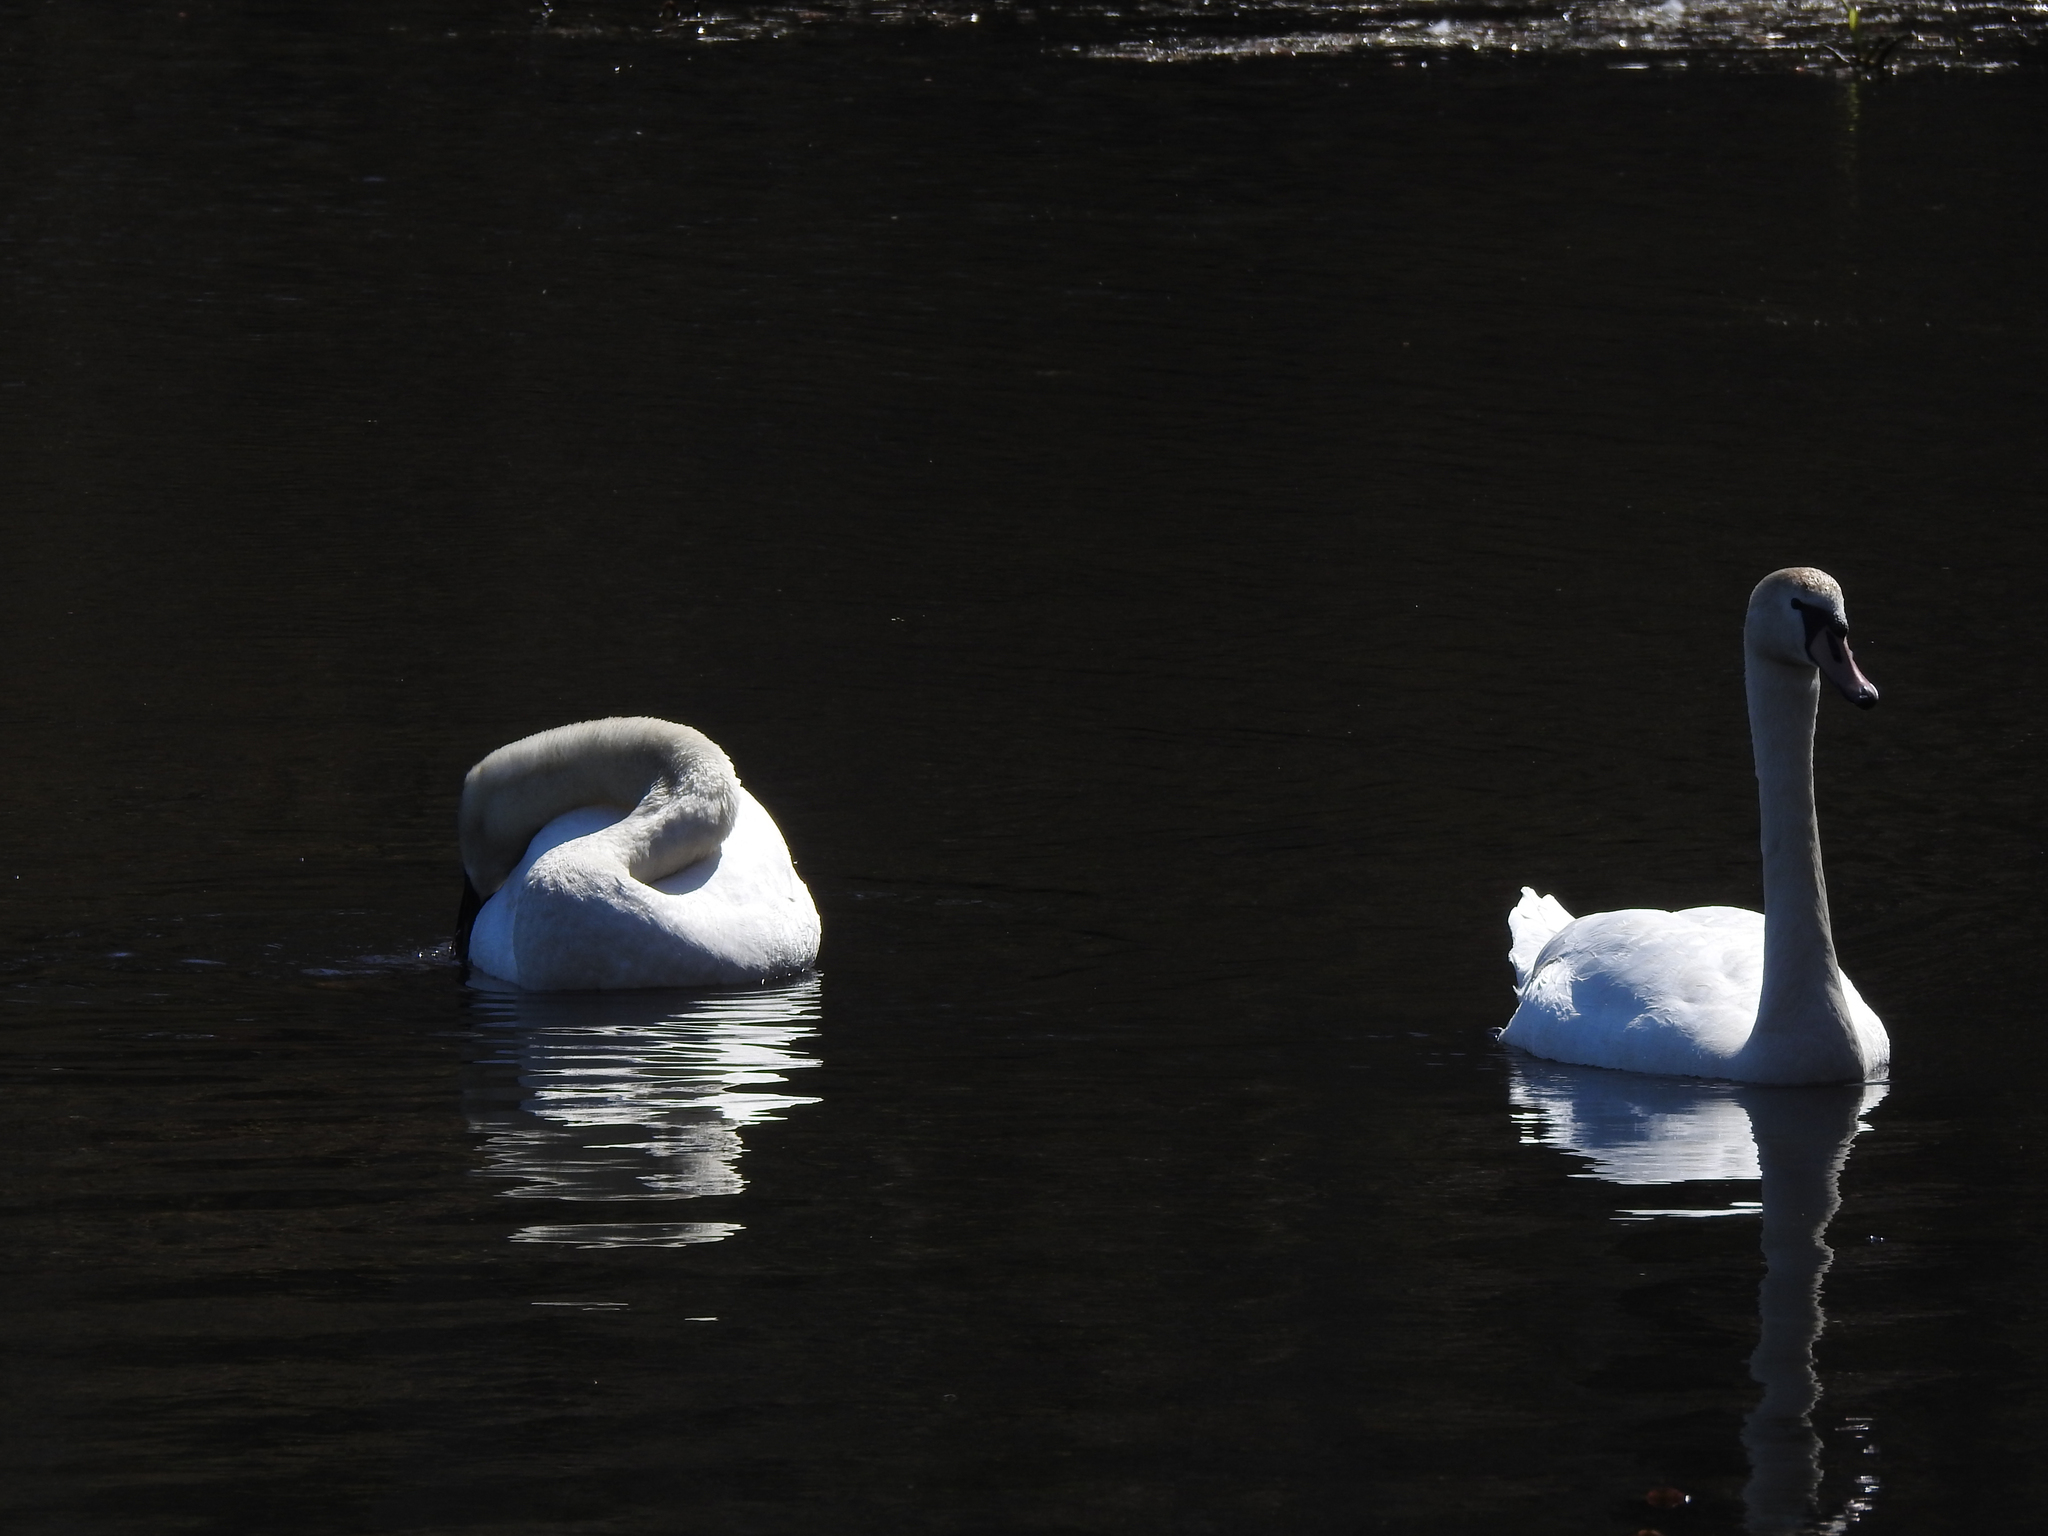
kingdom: Animalia
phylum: Chordata
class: Aves
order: Anseriformes
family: Anatidae
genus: Cygnus
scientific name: Cygnus olor
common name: Mute swan
